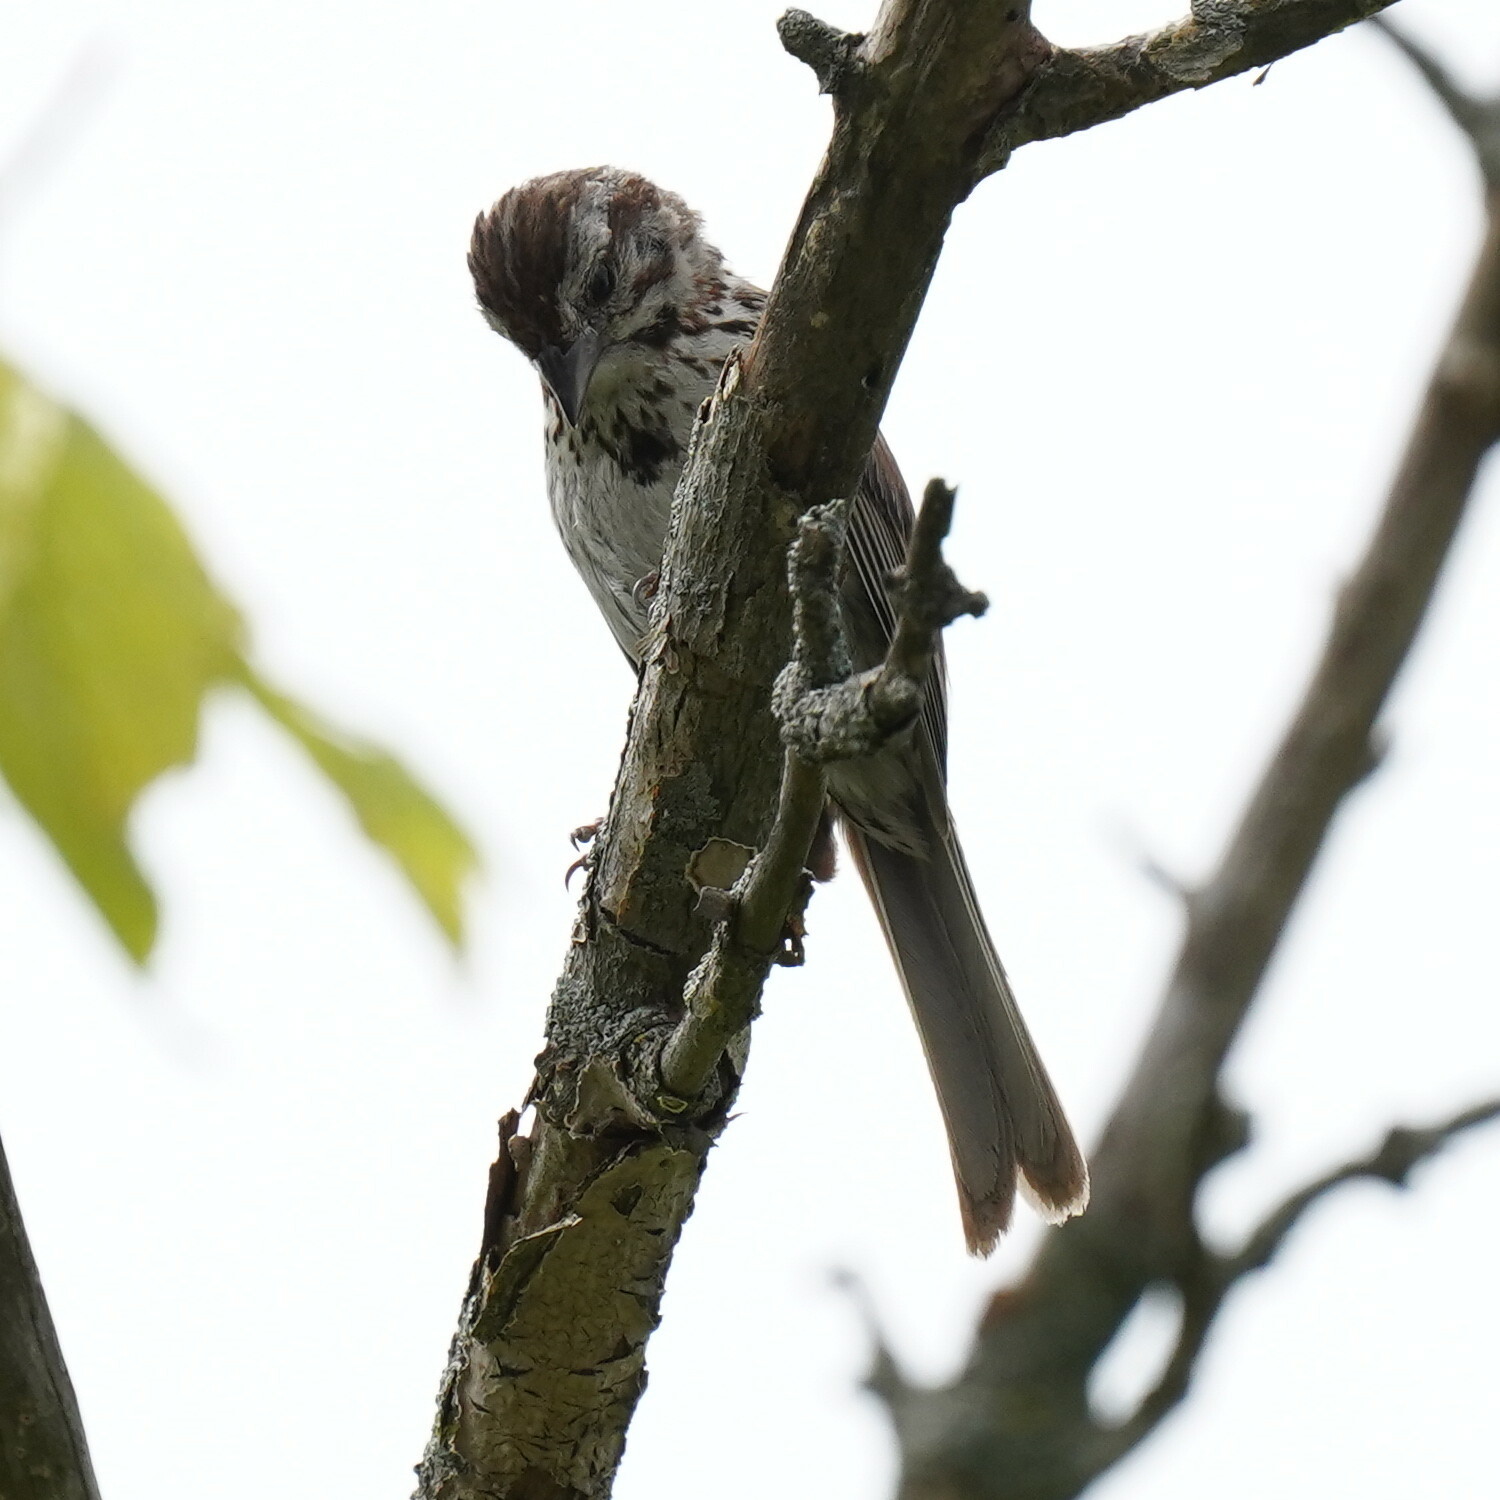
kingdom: Animalia
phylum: Chordata
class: Aves
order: Passeriformes
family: Passerellidae
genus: Melospiza
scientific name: Melospiza melodia
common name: Song sparrow
